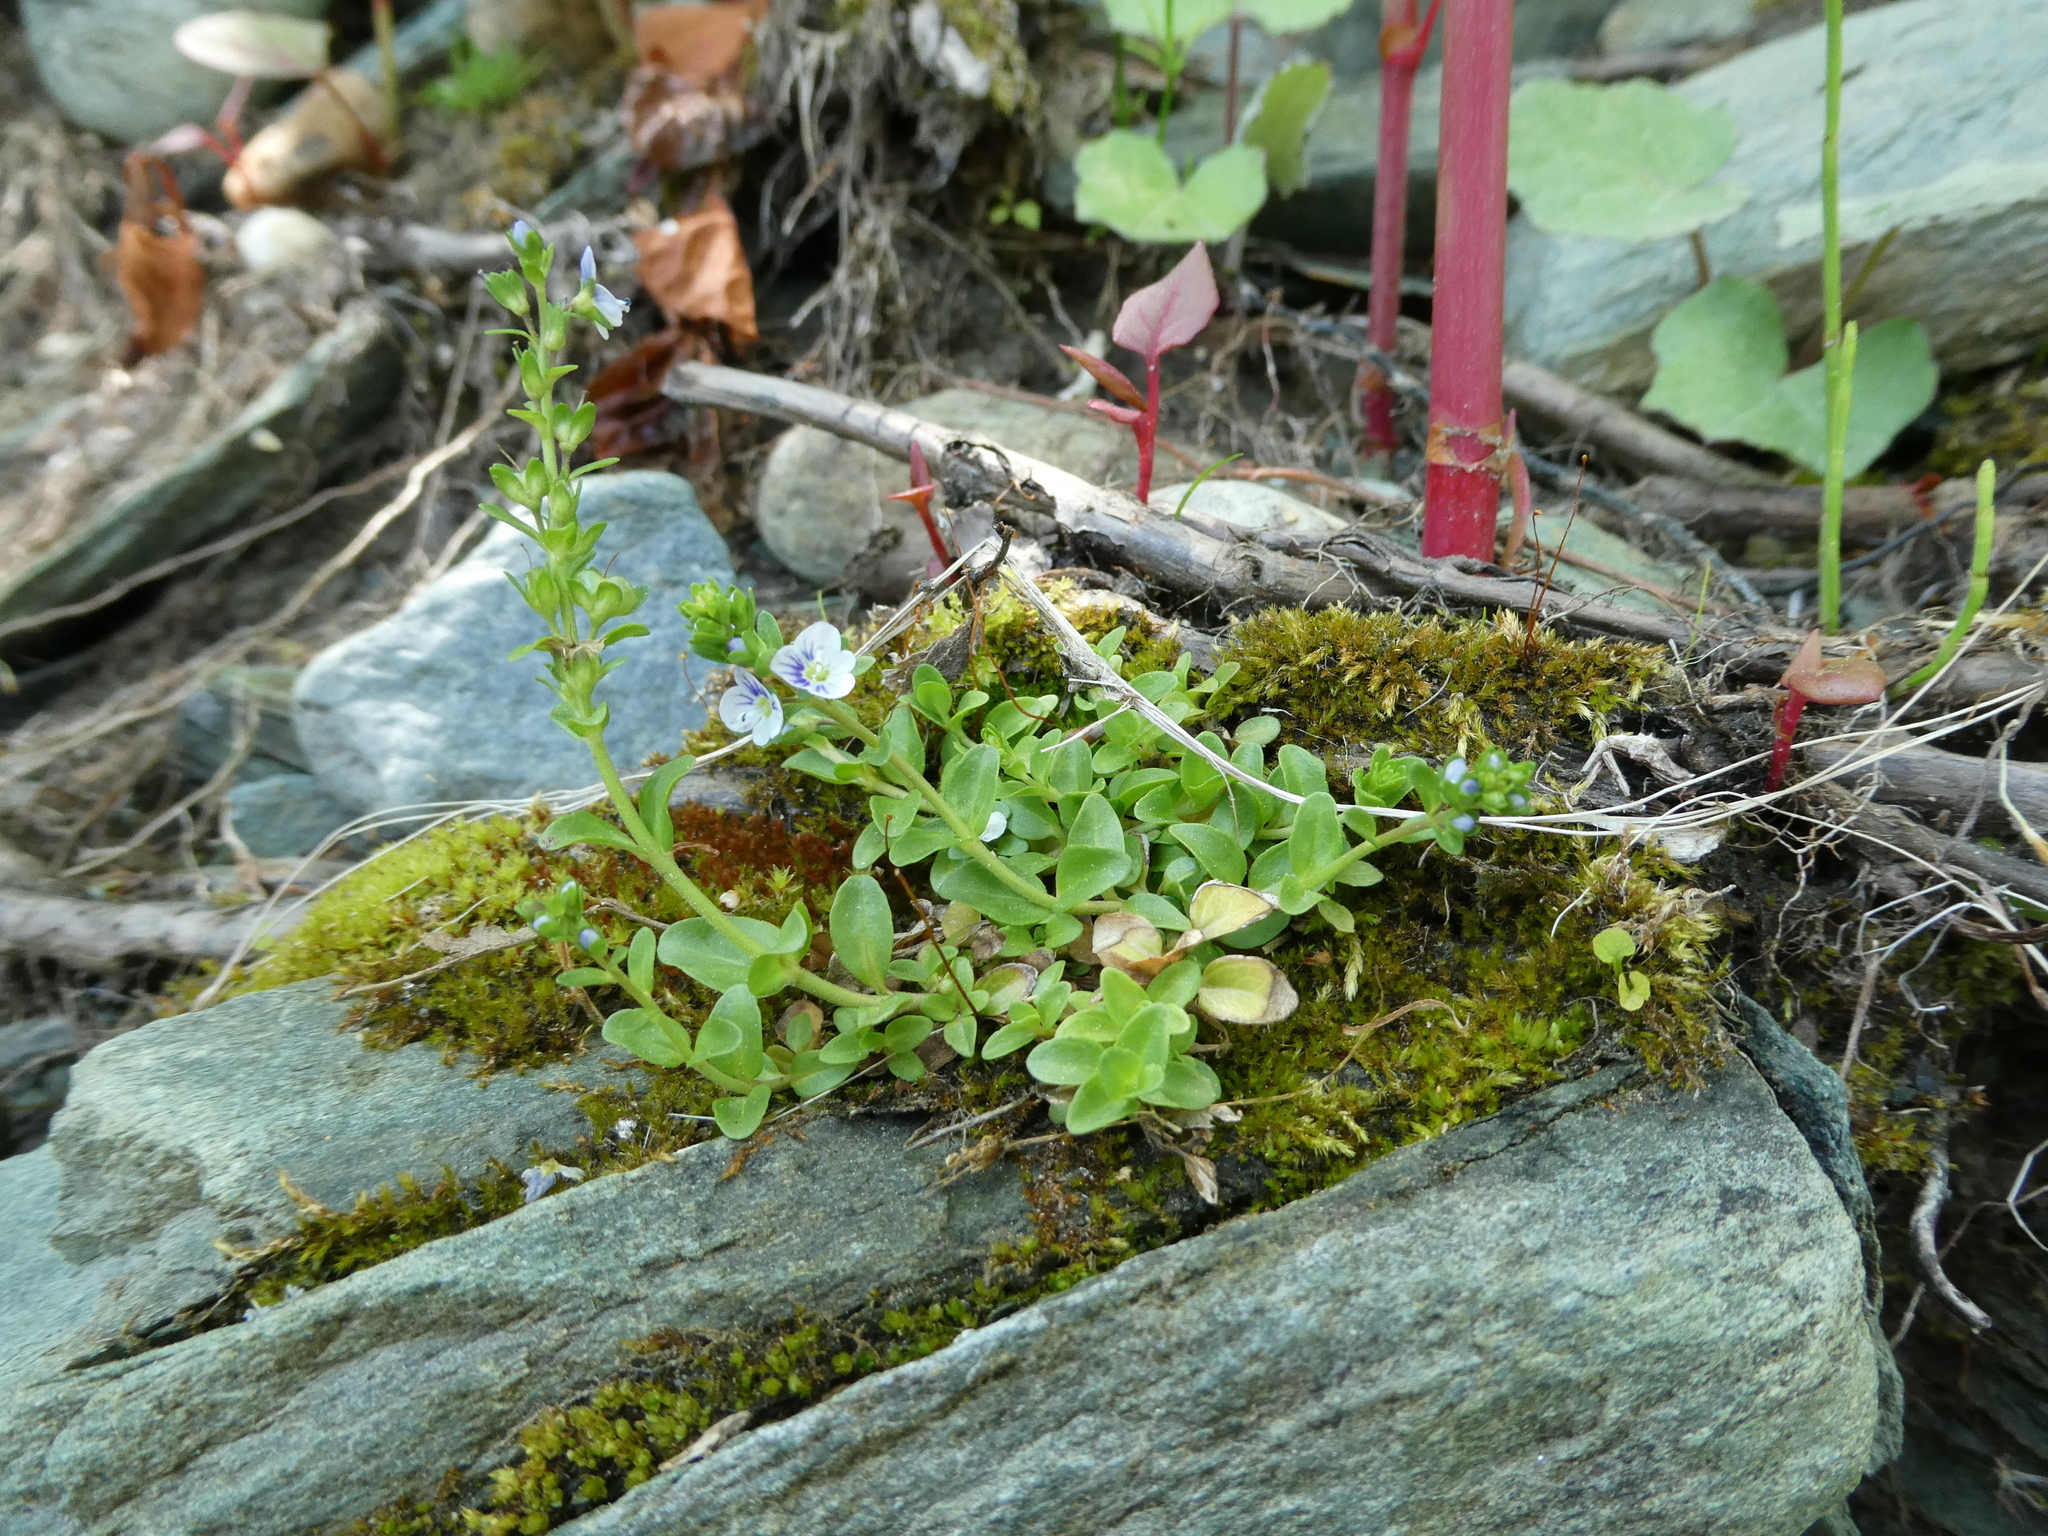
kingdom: Plantae
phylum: Tracheophyta
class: Magnoliopsida
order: Lamiales
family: Plantaginaceae
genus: Veronica
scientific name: Veronica serpyllifolia
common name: Thyme-leaved speedwell
